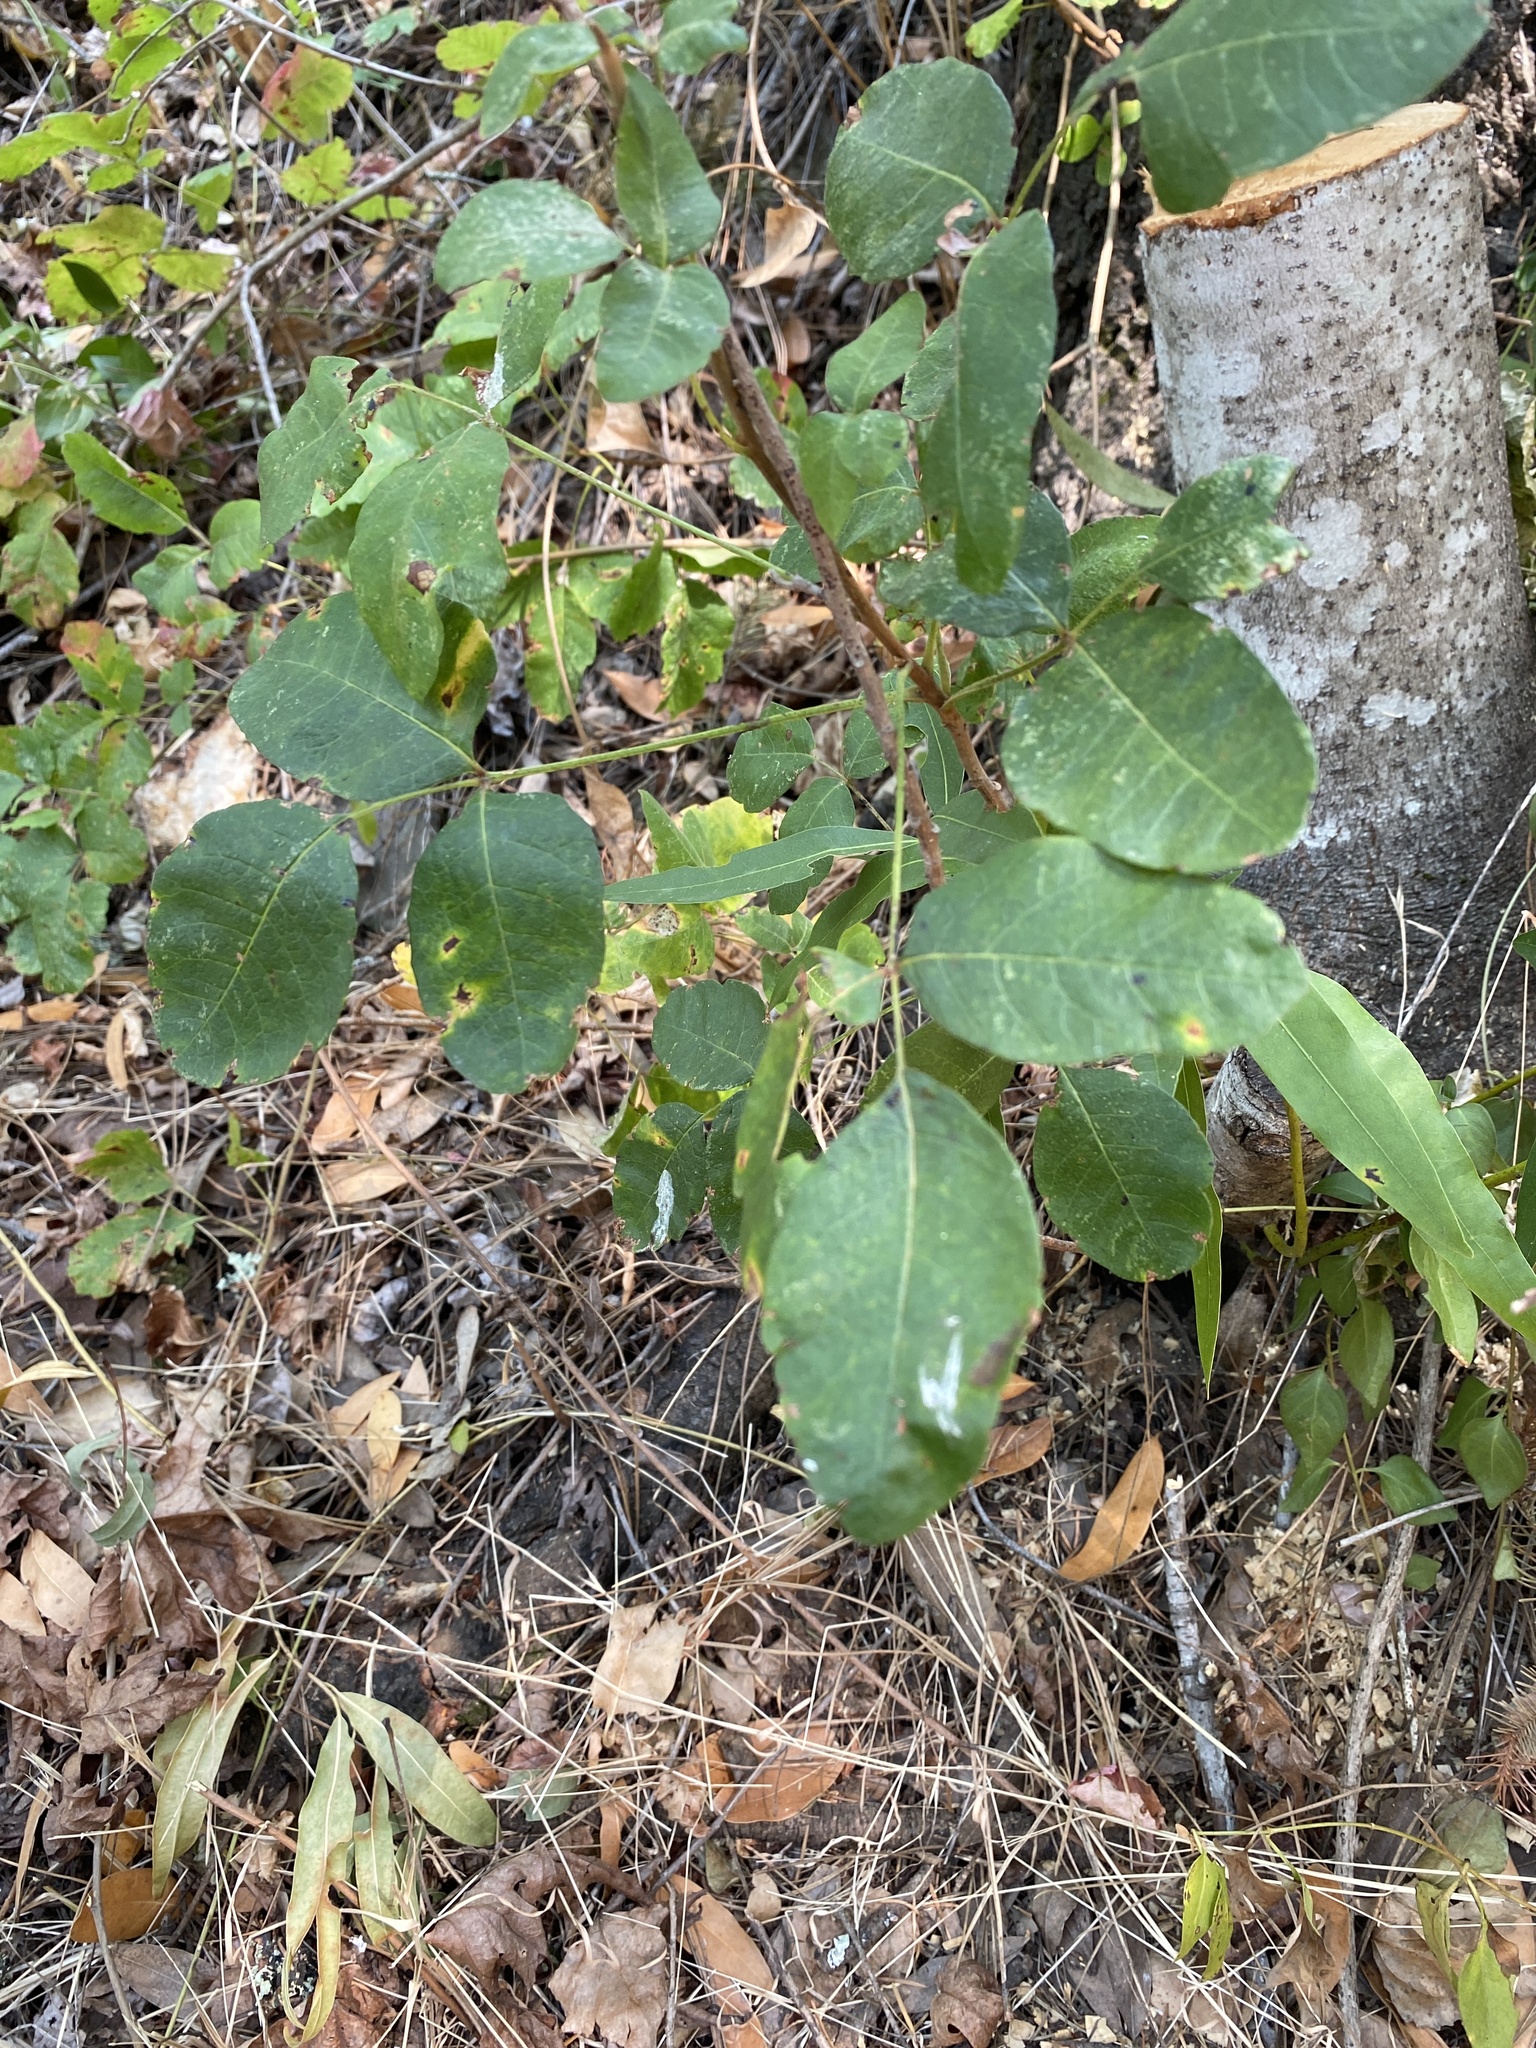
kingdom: Plantae
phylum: Tracheophyta
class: Magnoliopsida
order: Sapindales
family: Anacardiaceae
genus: Toxicodendron
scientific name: Toxicodendron diversilobum
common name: Pacific poison-oak
